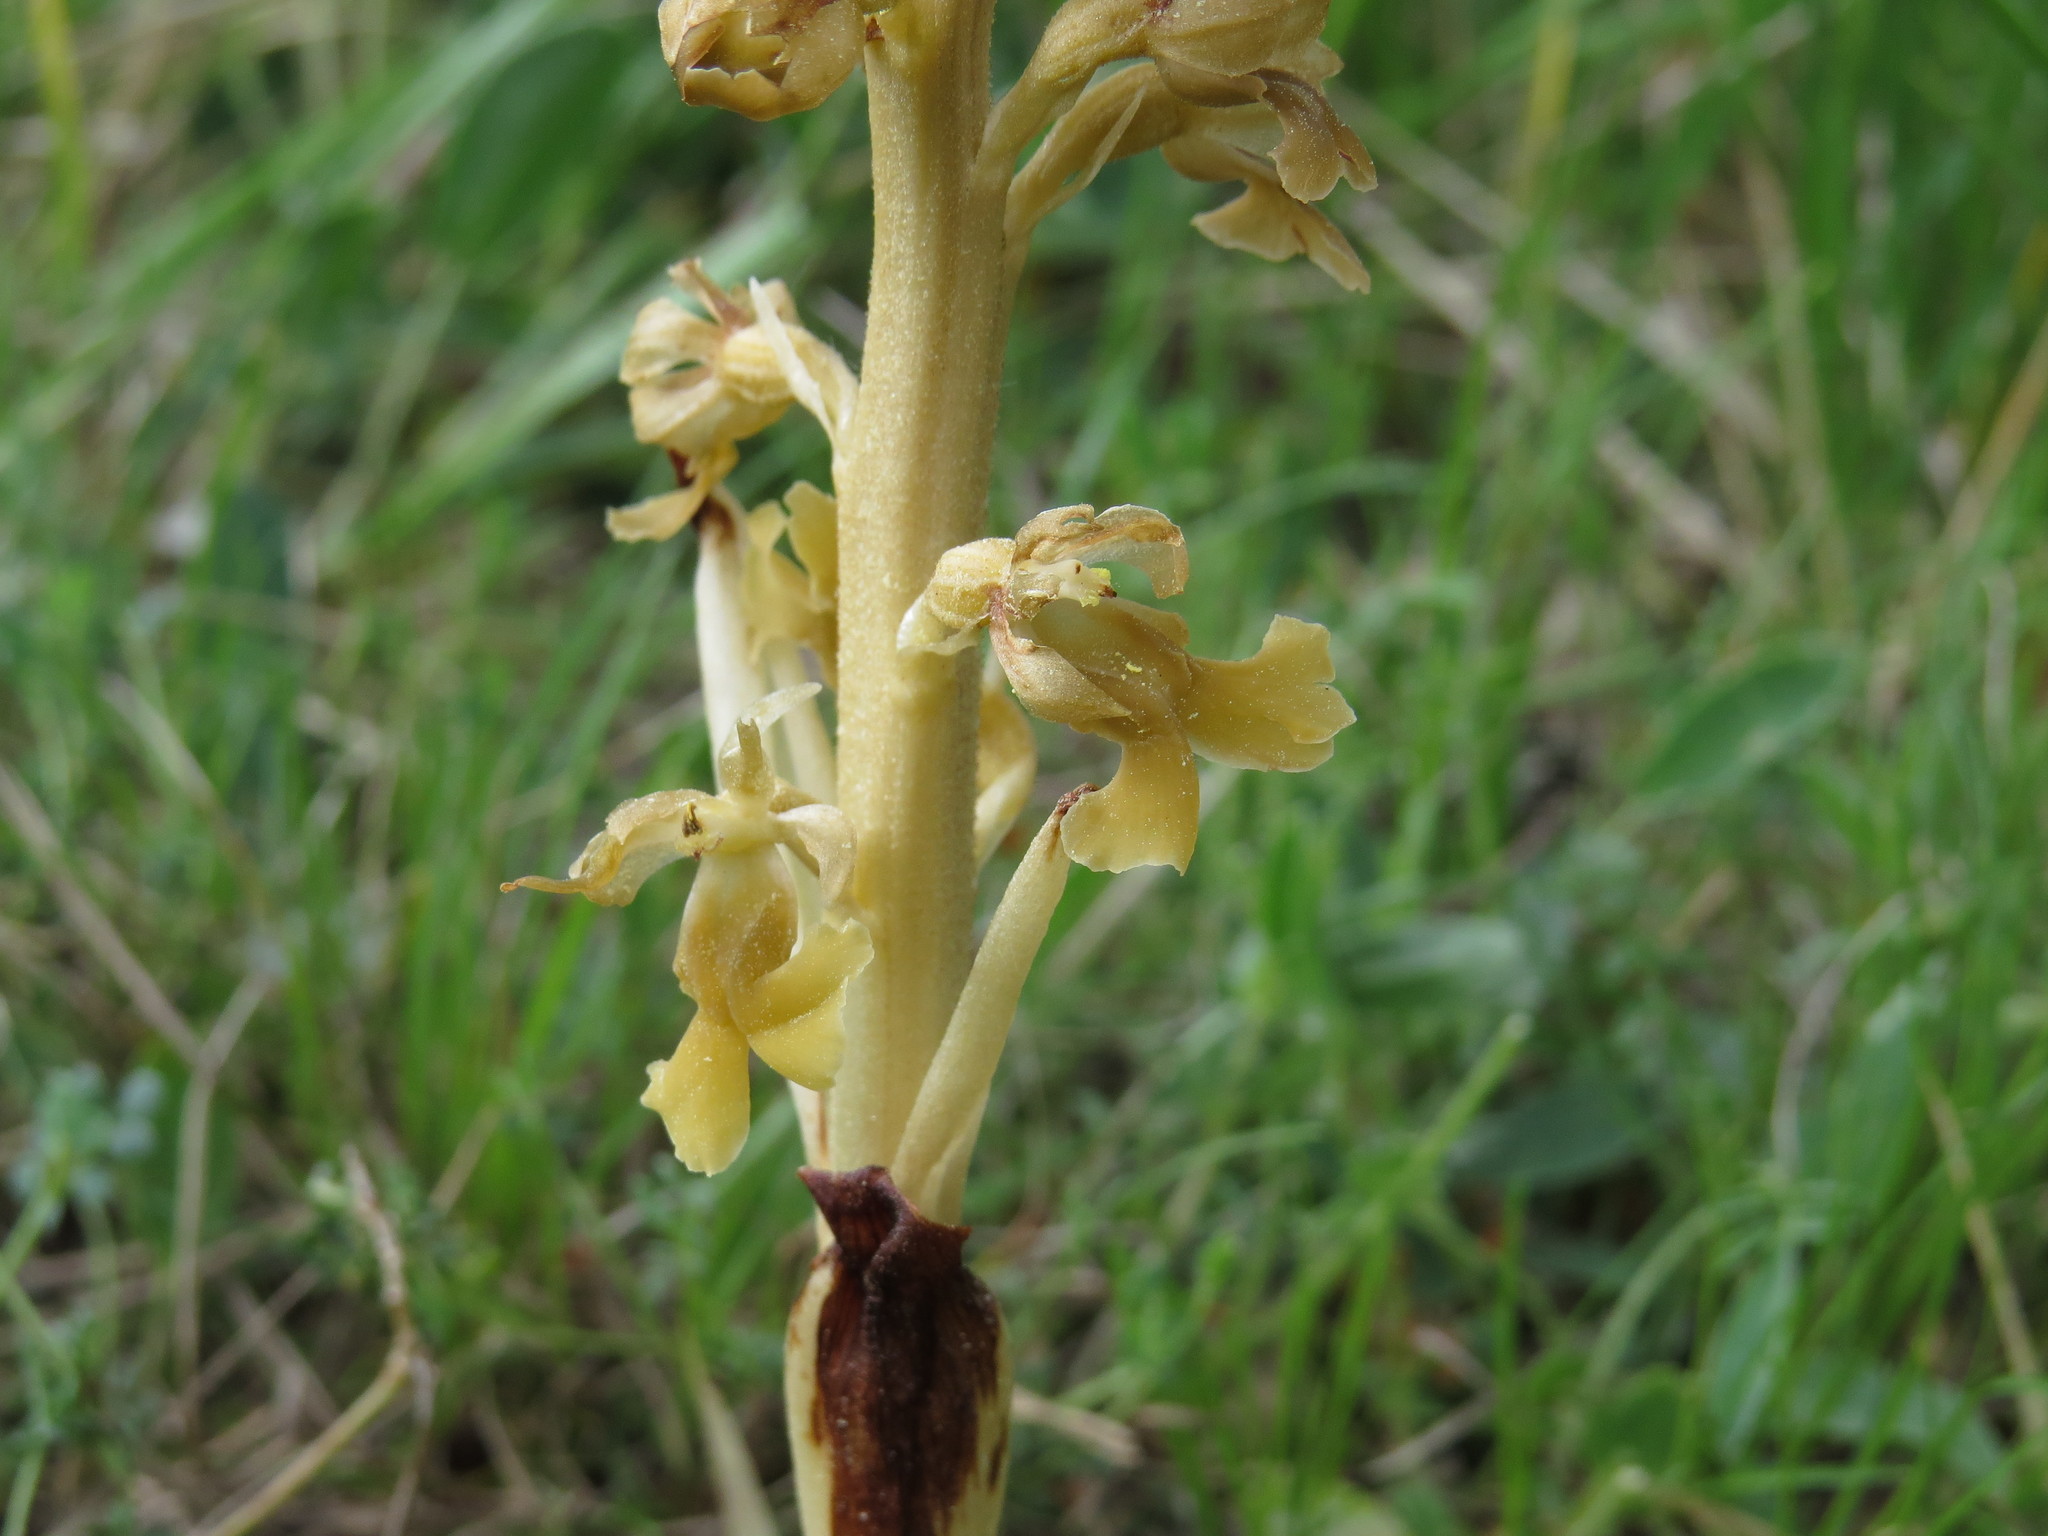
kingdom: Plantae
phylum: Tracheophyta
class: Liliopsida
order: Asparagales
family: Orchidaceae
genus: Neottia
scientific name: Neottia nidus-avis
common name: Bird's-nest orchid
